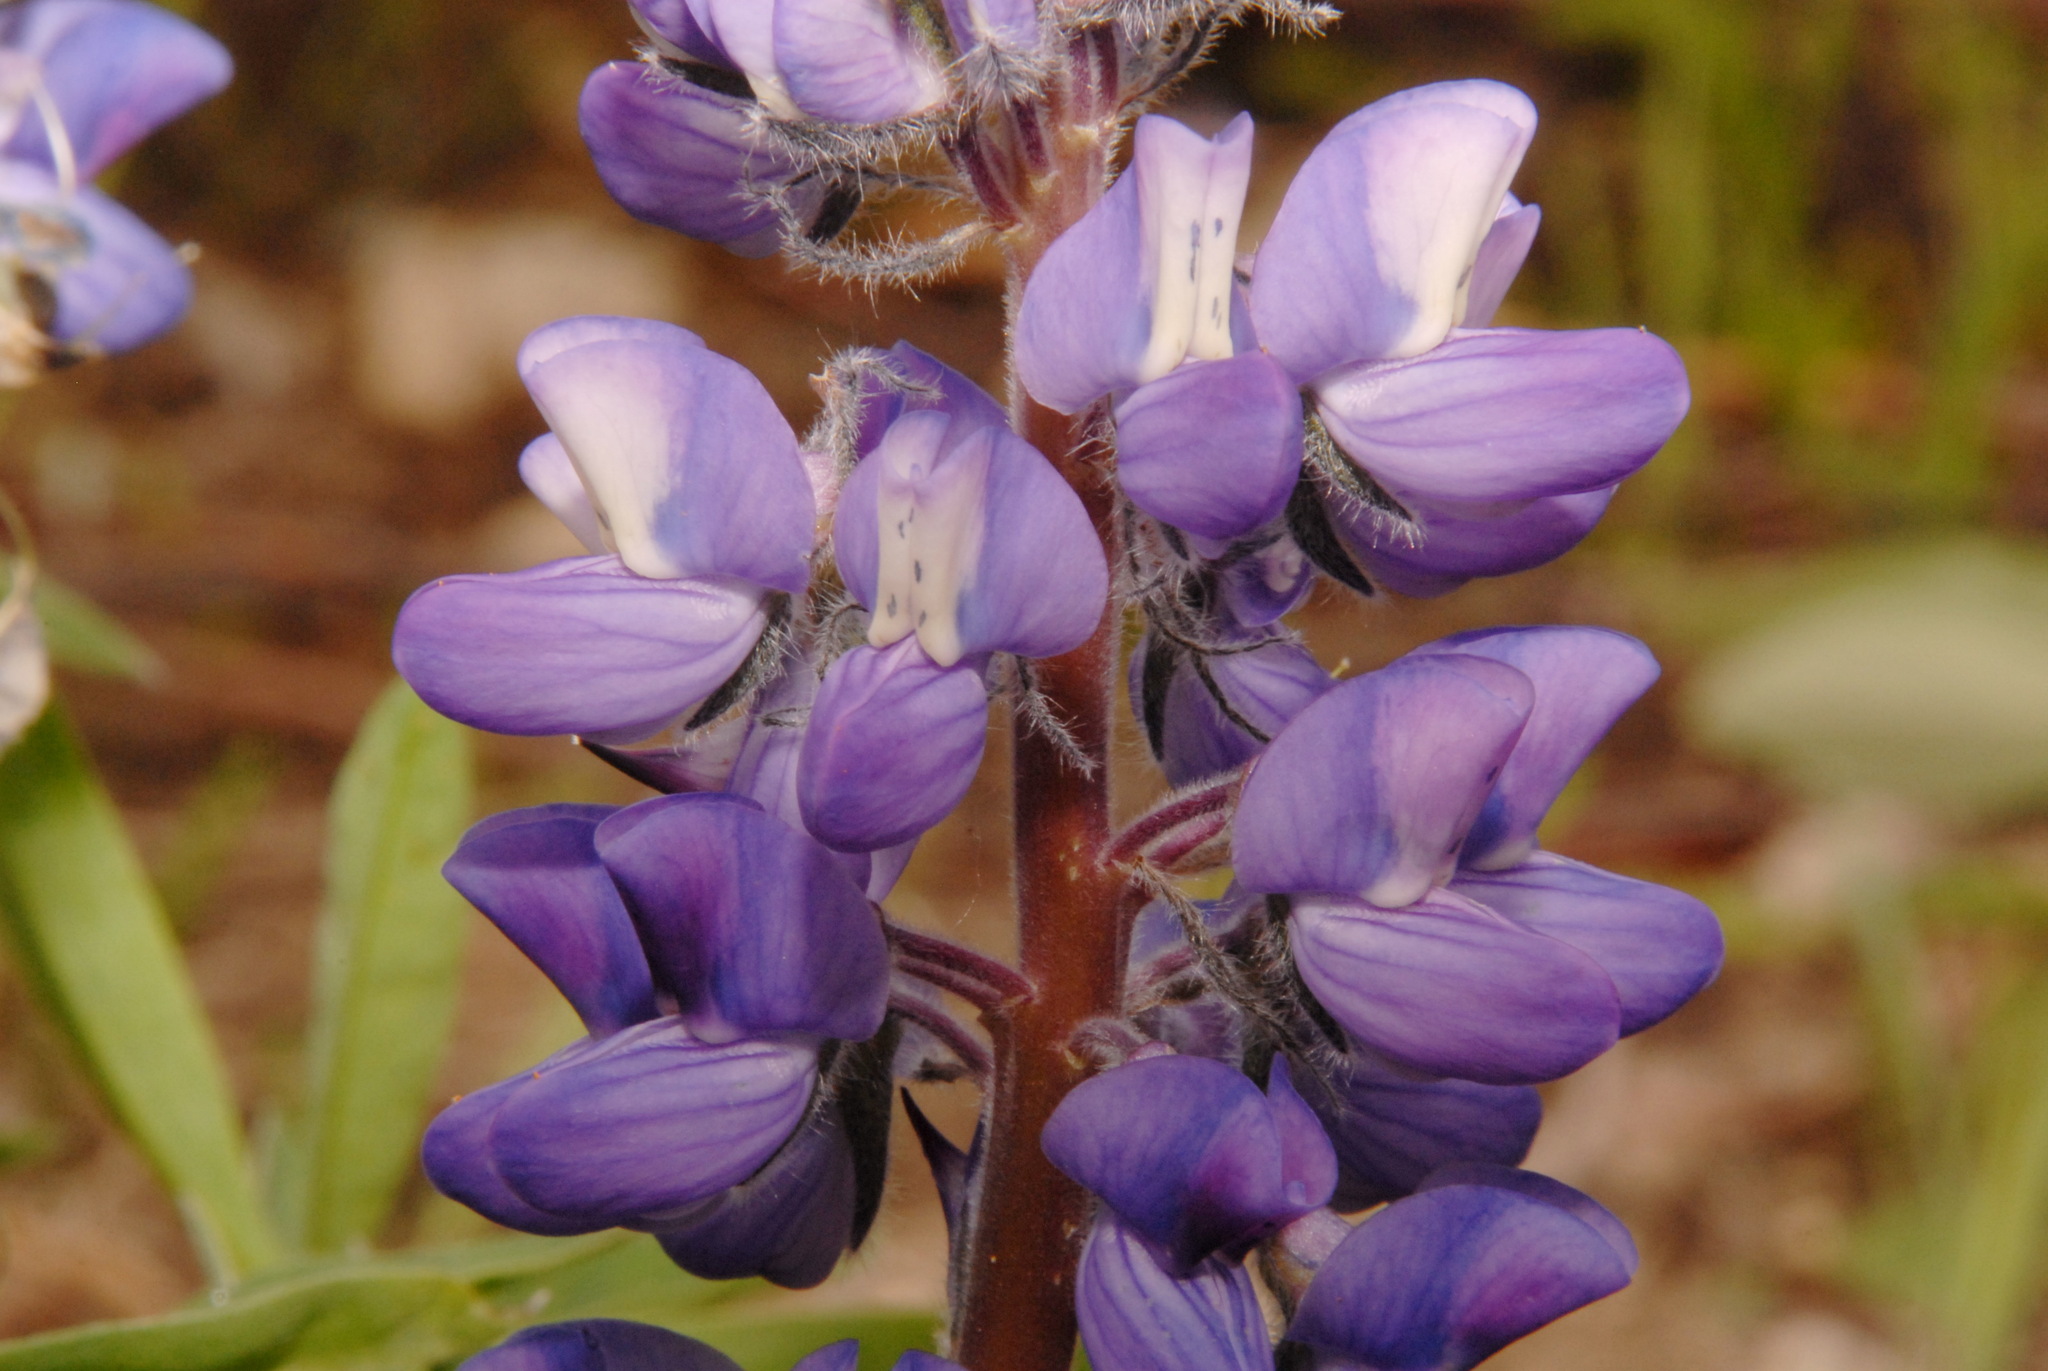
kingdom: Plantae
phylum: Tracheophyta
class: Magnoliopsida
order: Fabales
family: Fabaceae
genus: Lupinus
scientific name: Lupinus arcticus
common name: Arctic lupine
